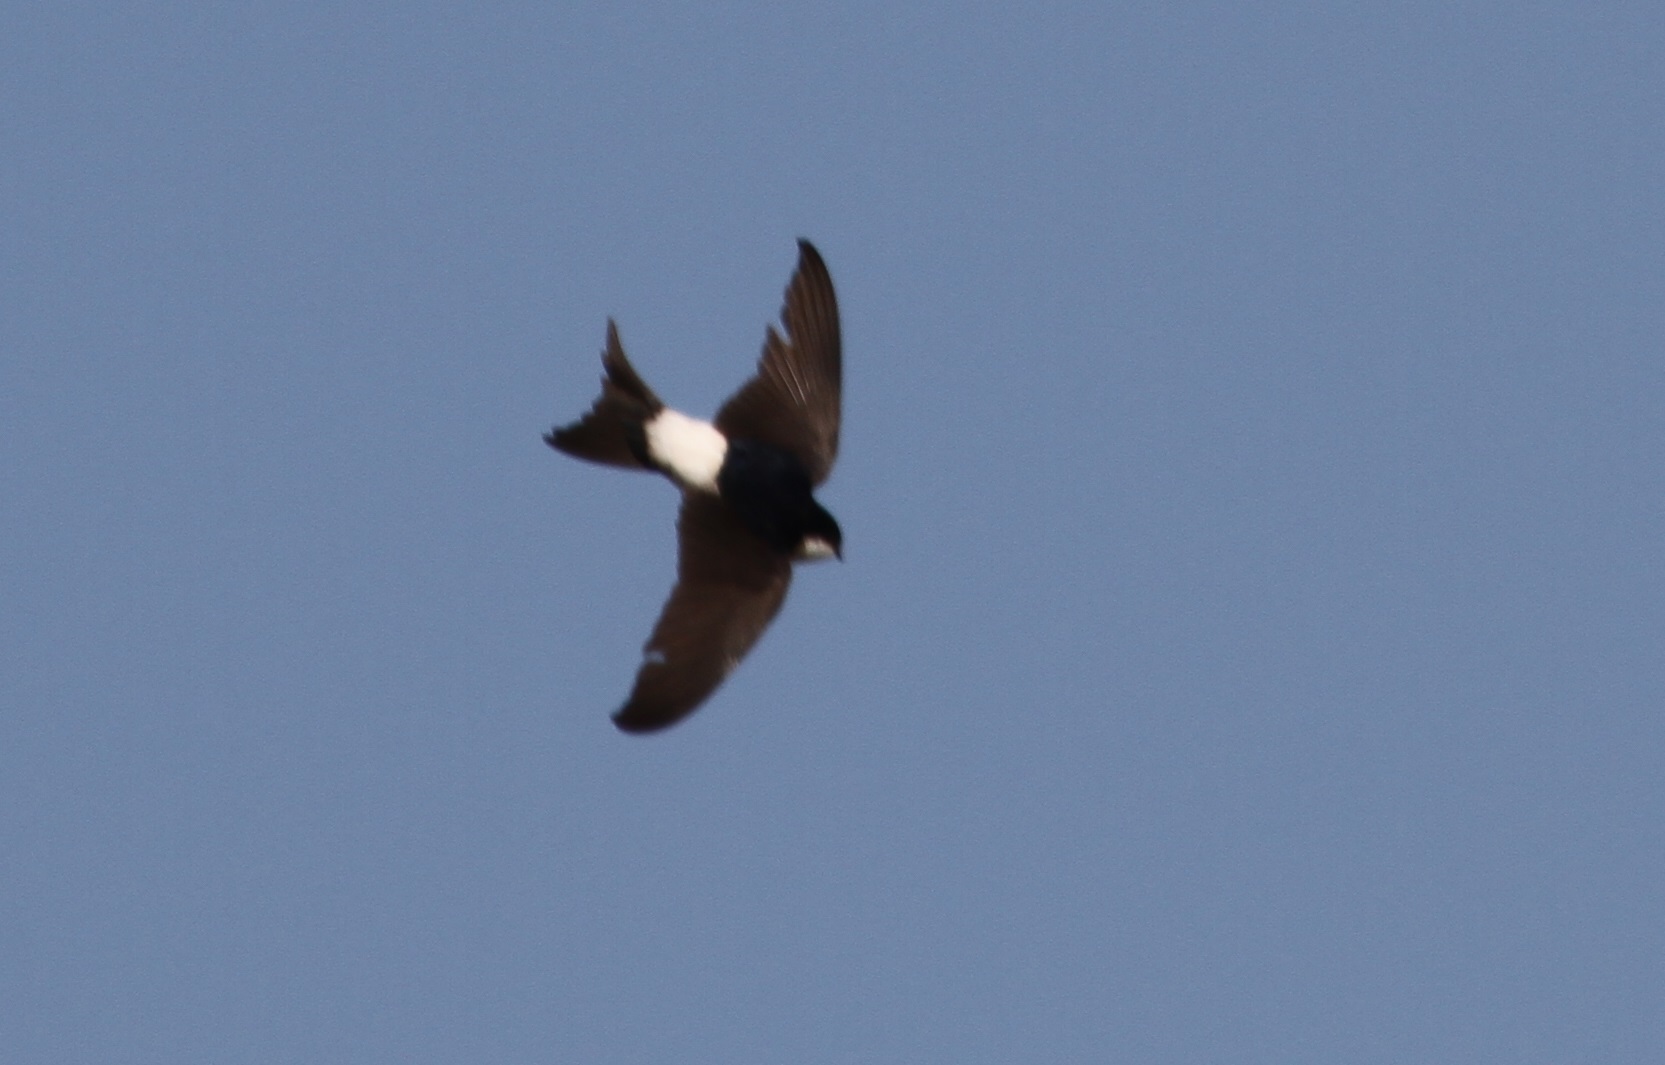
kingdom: Animalia
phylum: Chordata
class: Aves
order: Passeriformes
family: Hirundinidae
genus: Delichon
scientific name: Delichon urbicum
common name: Common house martin
